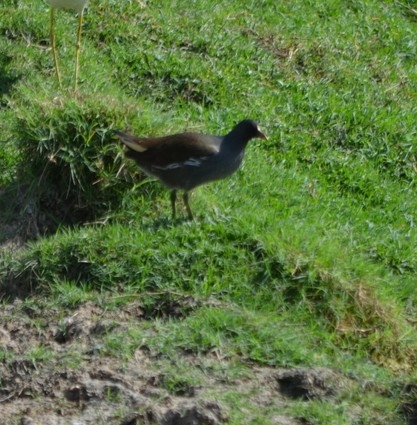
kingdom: Animalia
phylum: Chordata
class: Aves
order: Gruiformes
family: Rallidae
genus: Gallinula
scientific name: Gallinula chloropus
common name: Common moorhen
